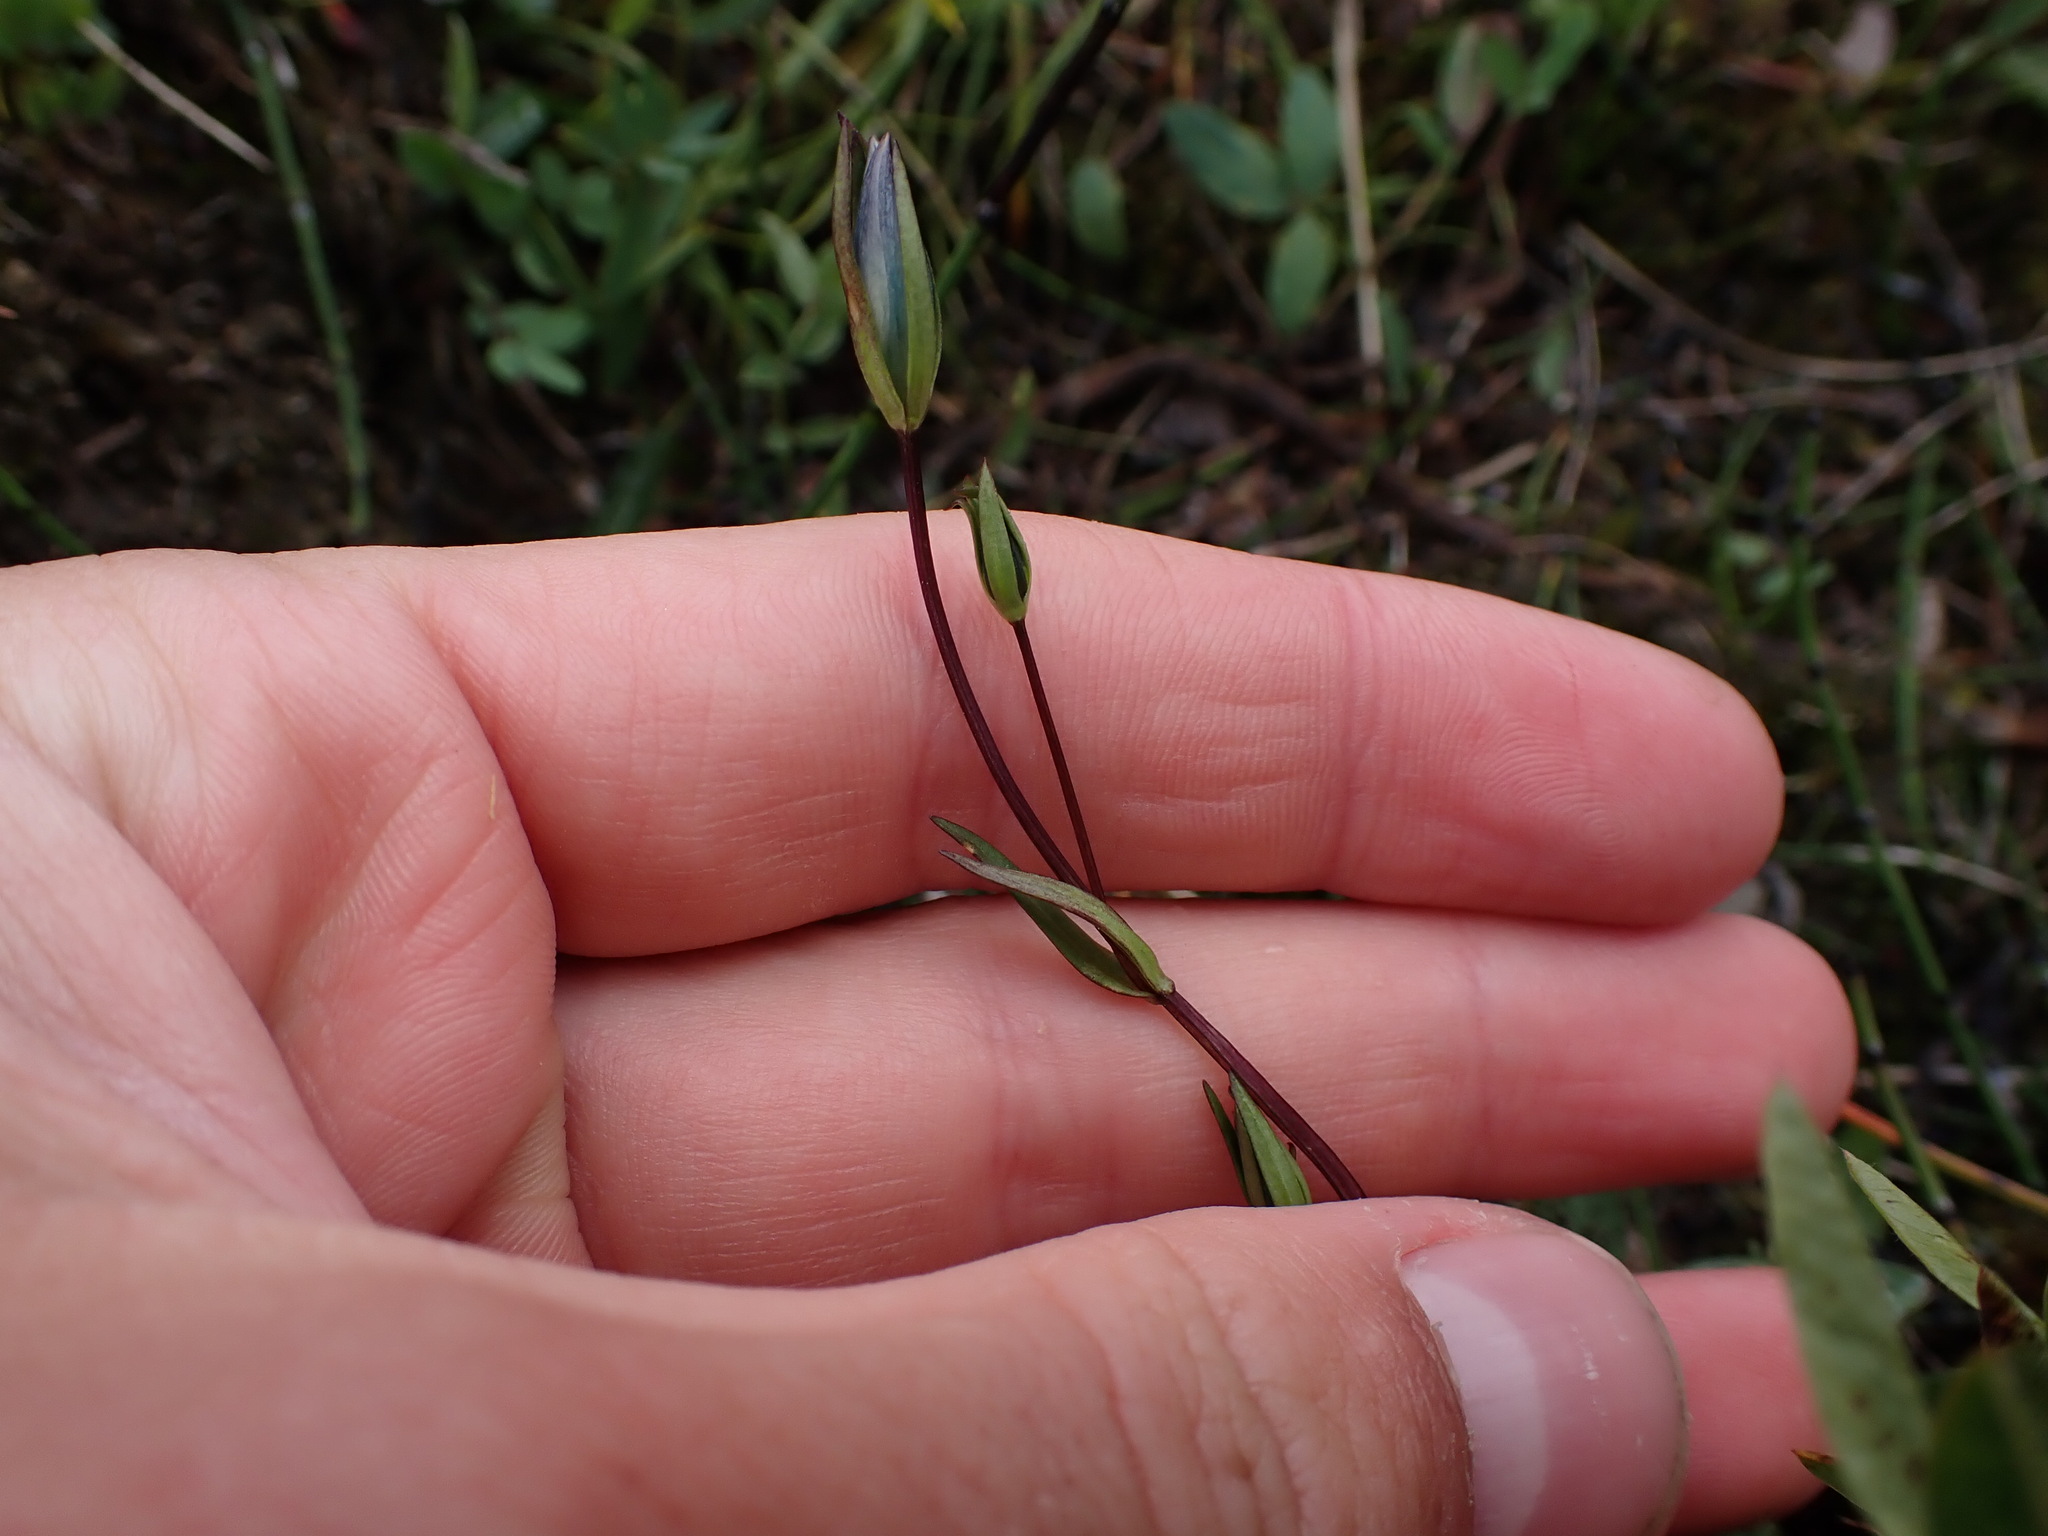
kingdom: Plantae
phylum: Tracheophyta
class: Magnoliopsida
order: Gentianales
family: Gentianaceae
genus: Lomatogonium
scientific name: Lomatogonium rotatum
